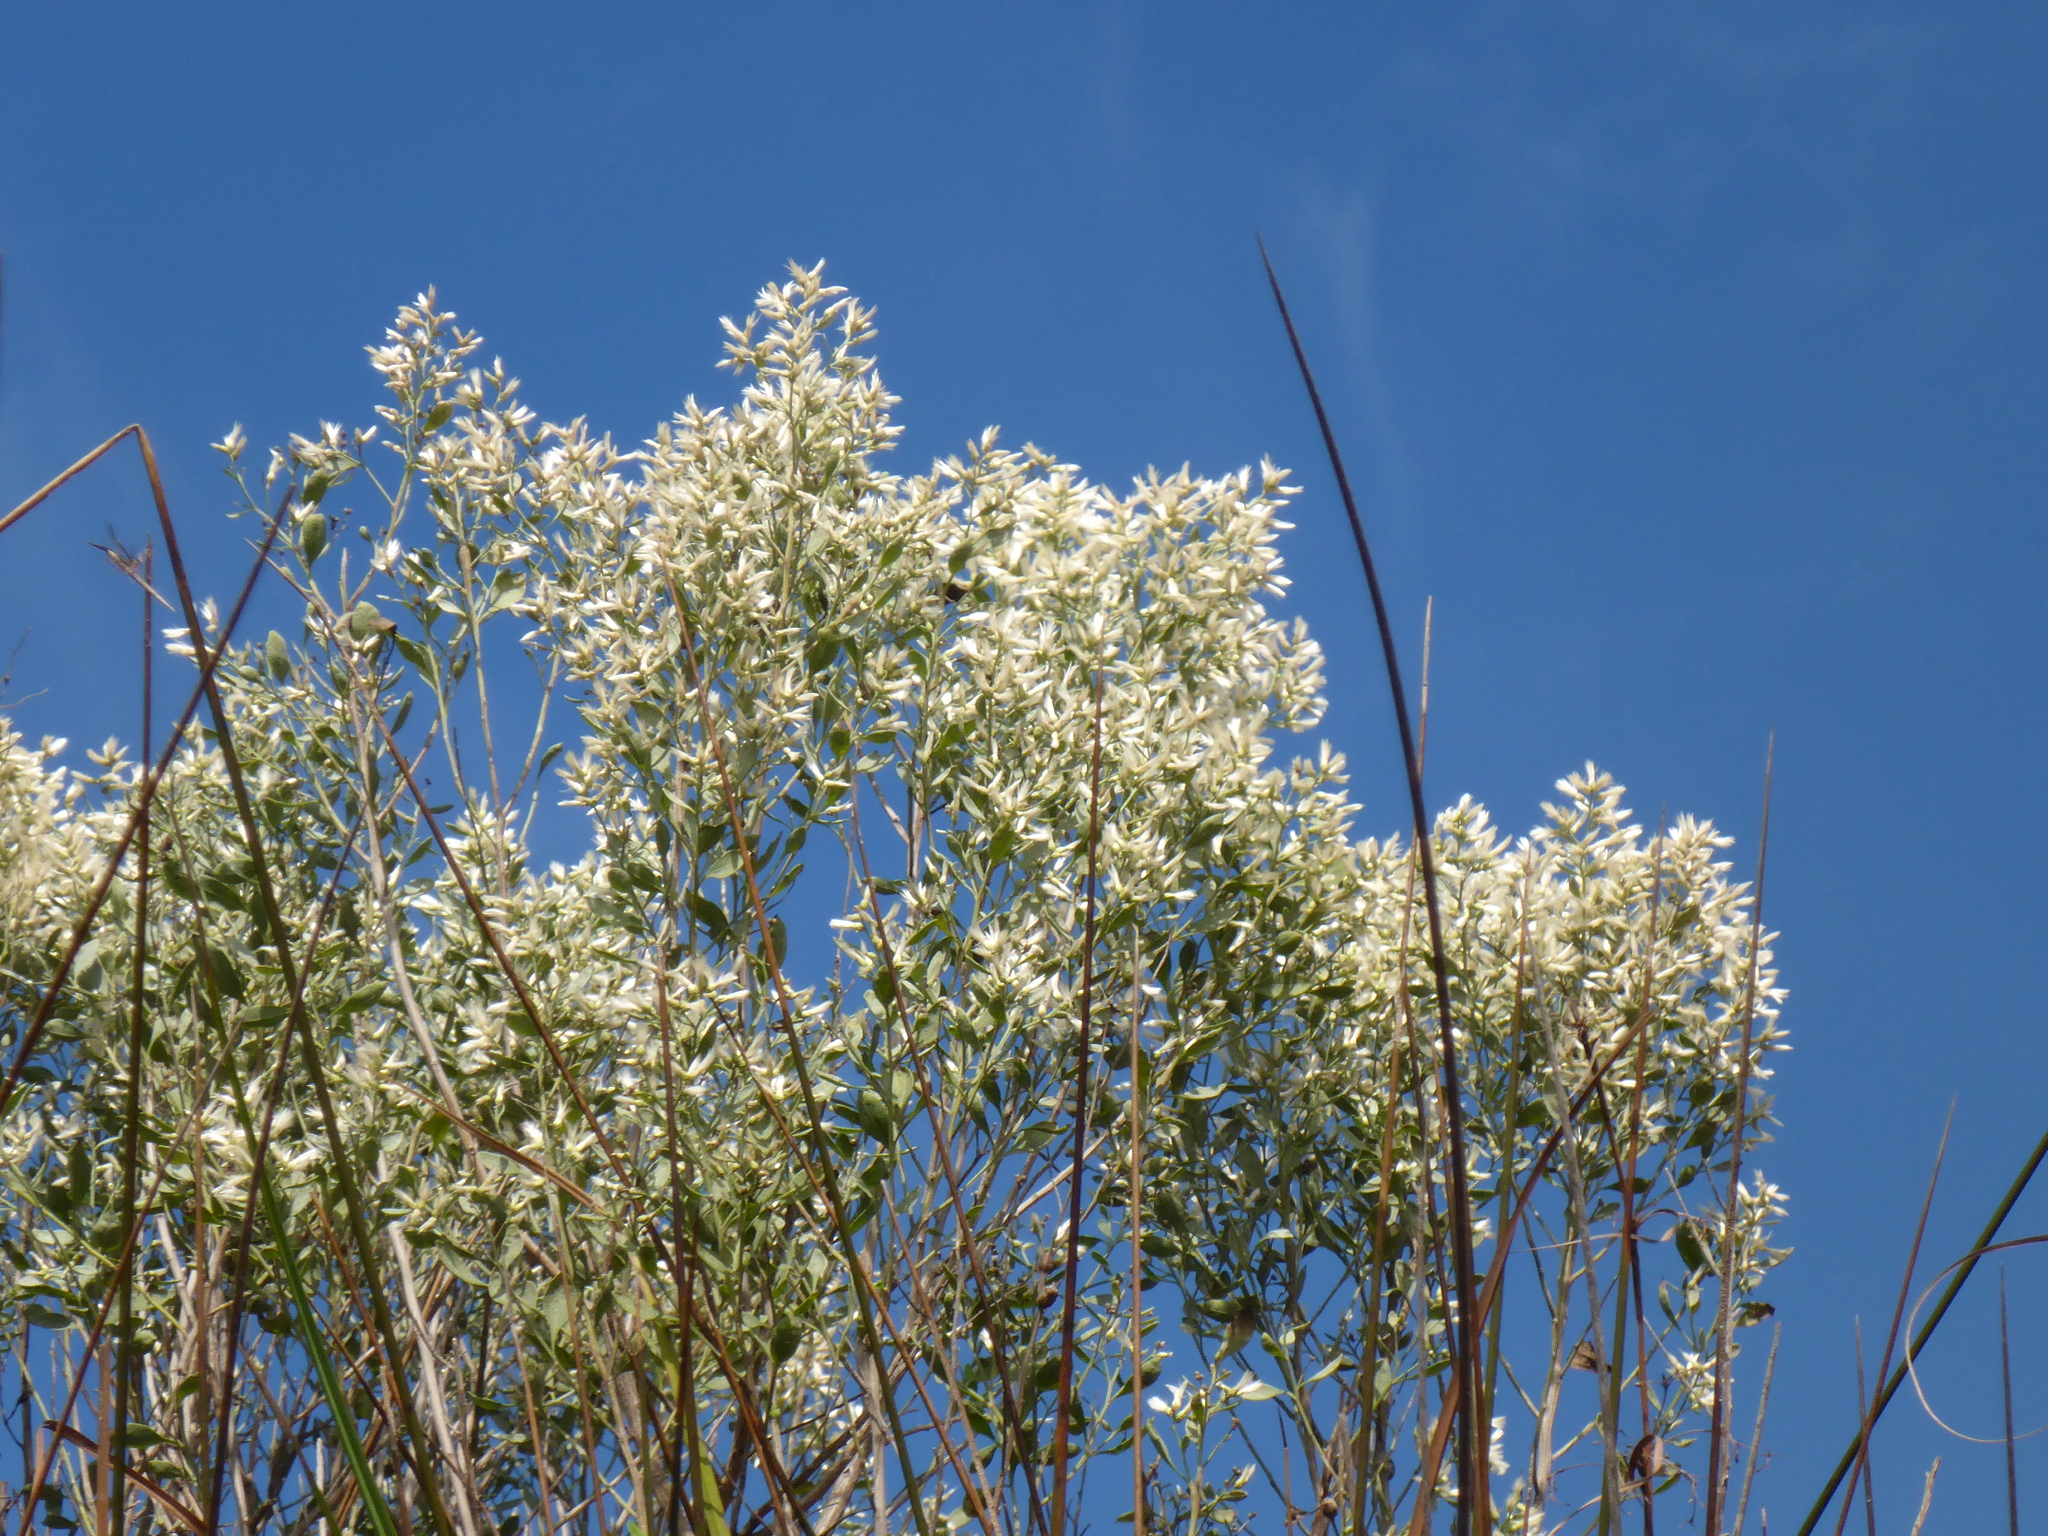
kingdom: Plantae
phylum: Tracheophyta
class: Magnoliopsida
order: Asterales
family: Asteraceae
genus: Baccharis
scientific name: Baccharis halimifolia
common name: Eastern baccharis
